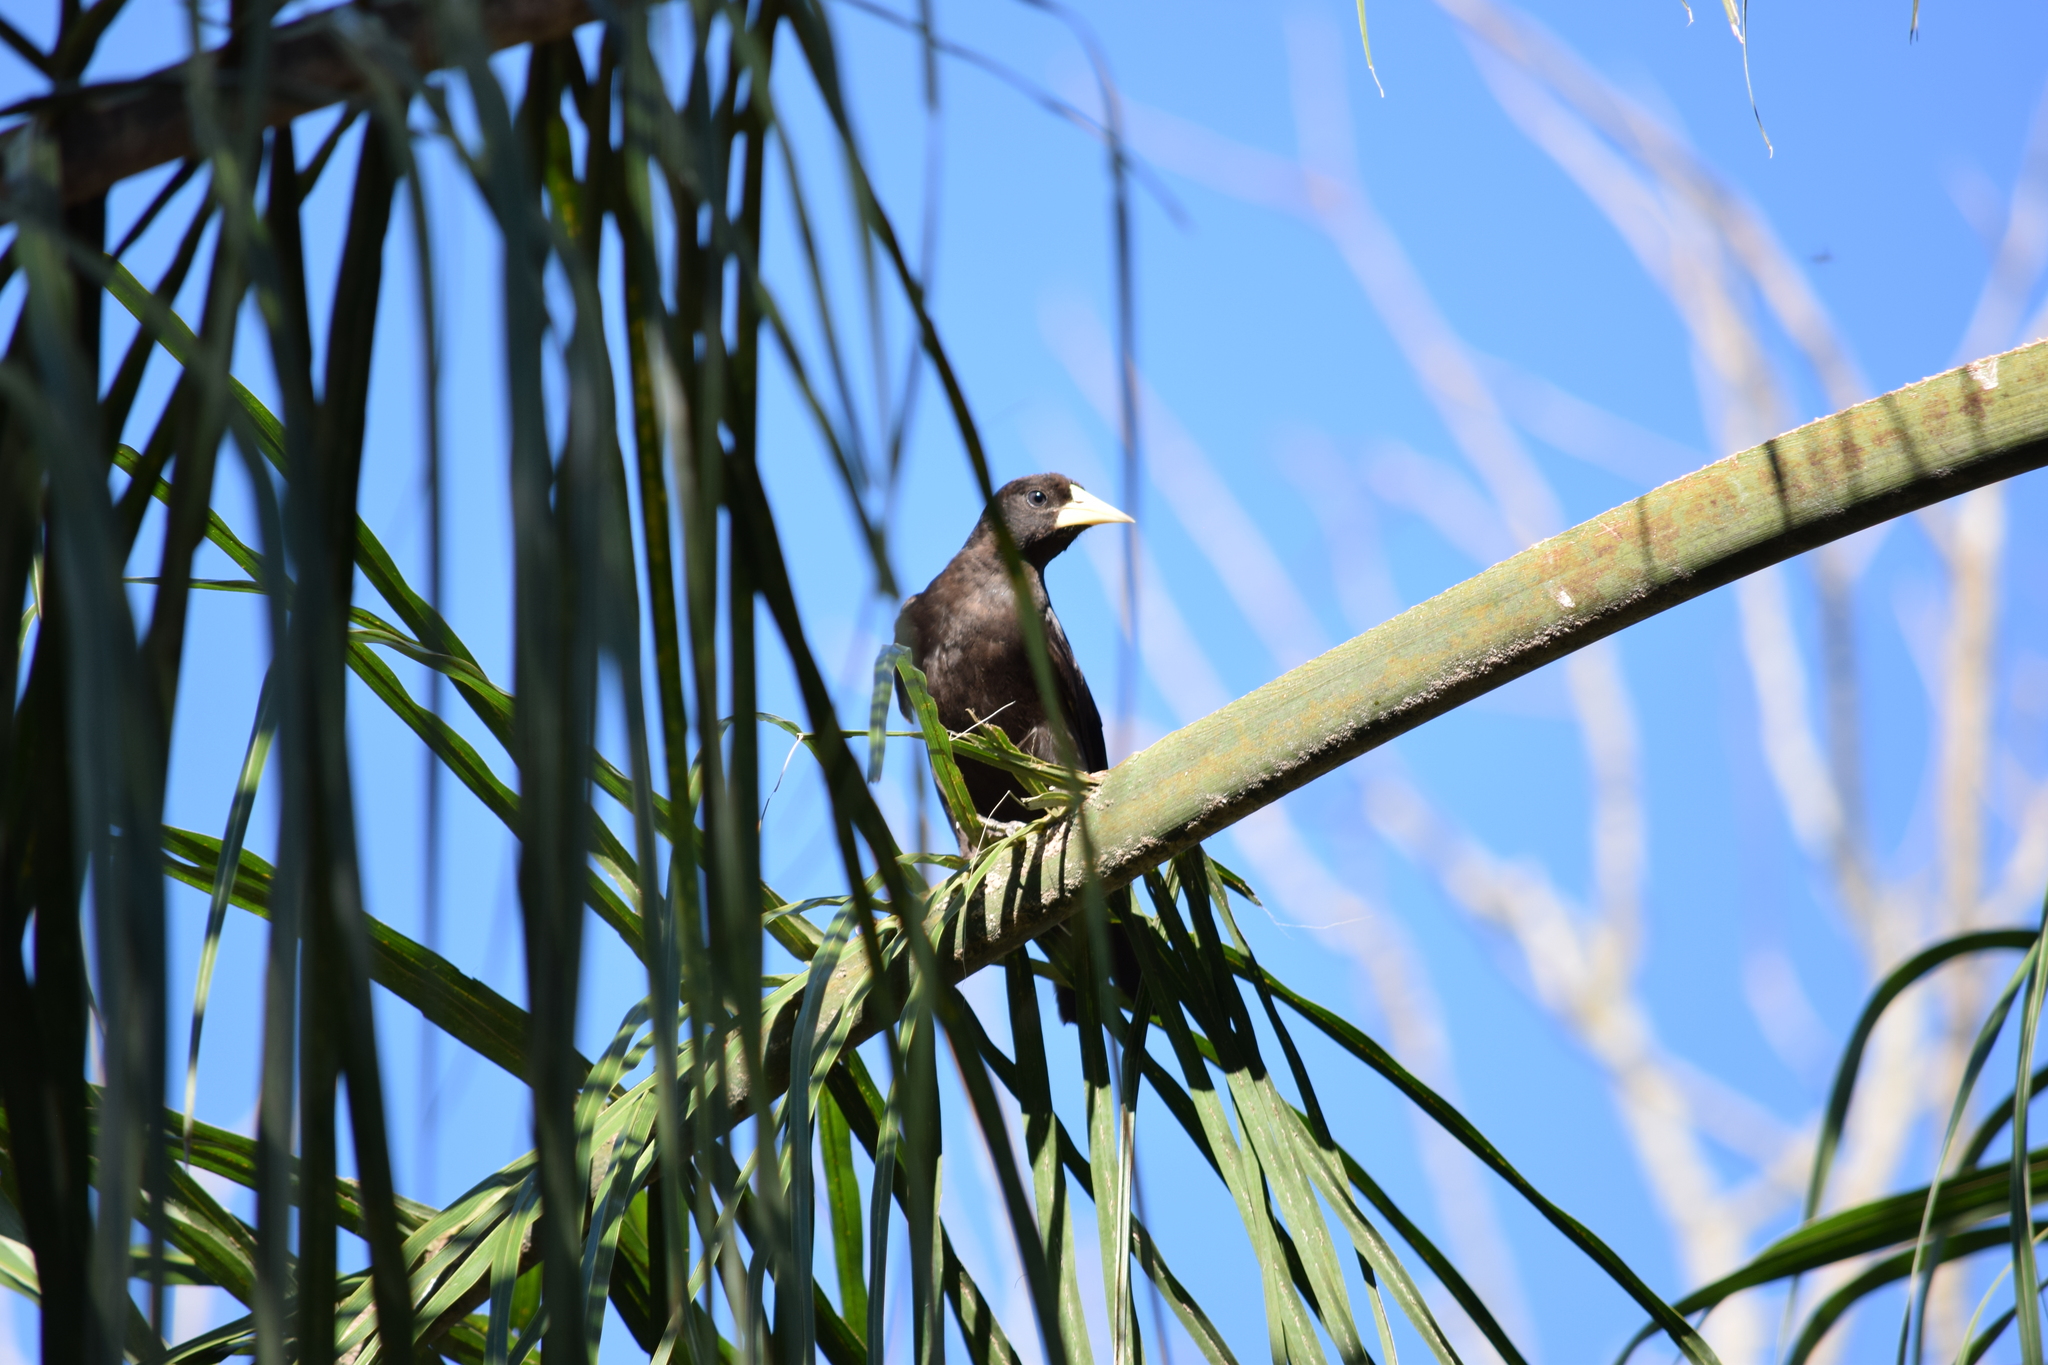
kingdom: Animalia
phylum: Chordata
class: Aves
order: Passeriformes
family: Icteridae
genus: Cacicus
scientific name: Cacicus haemorrhous
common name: Red-rumped cacique
